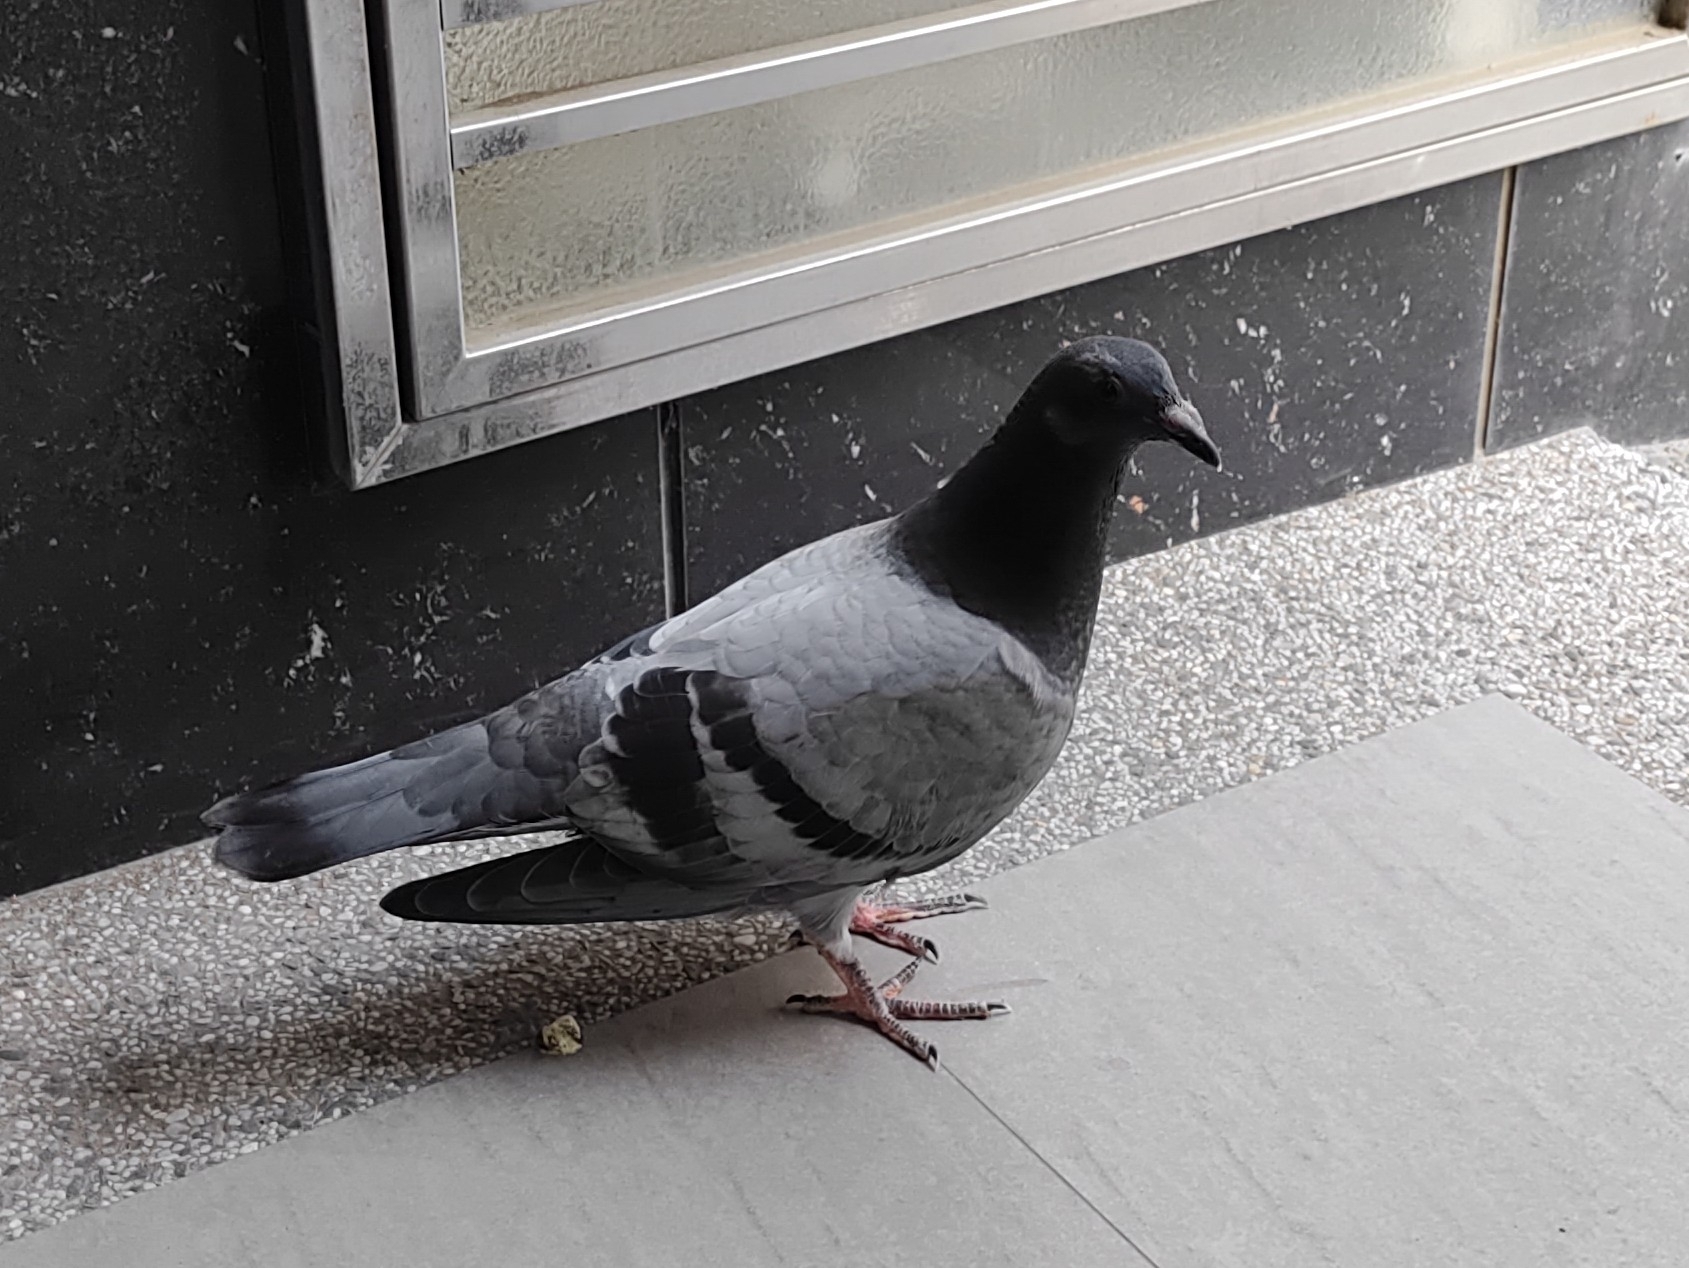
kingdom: Animalia
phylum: Chordata
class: Aves
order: Columbiformes
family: Columbidae
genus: Columba
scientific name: Columba livia
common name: Rock pigeon
